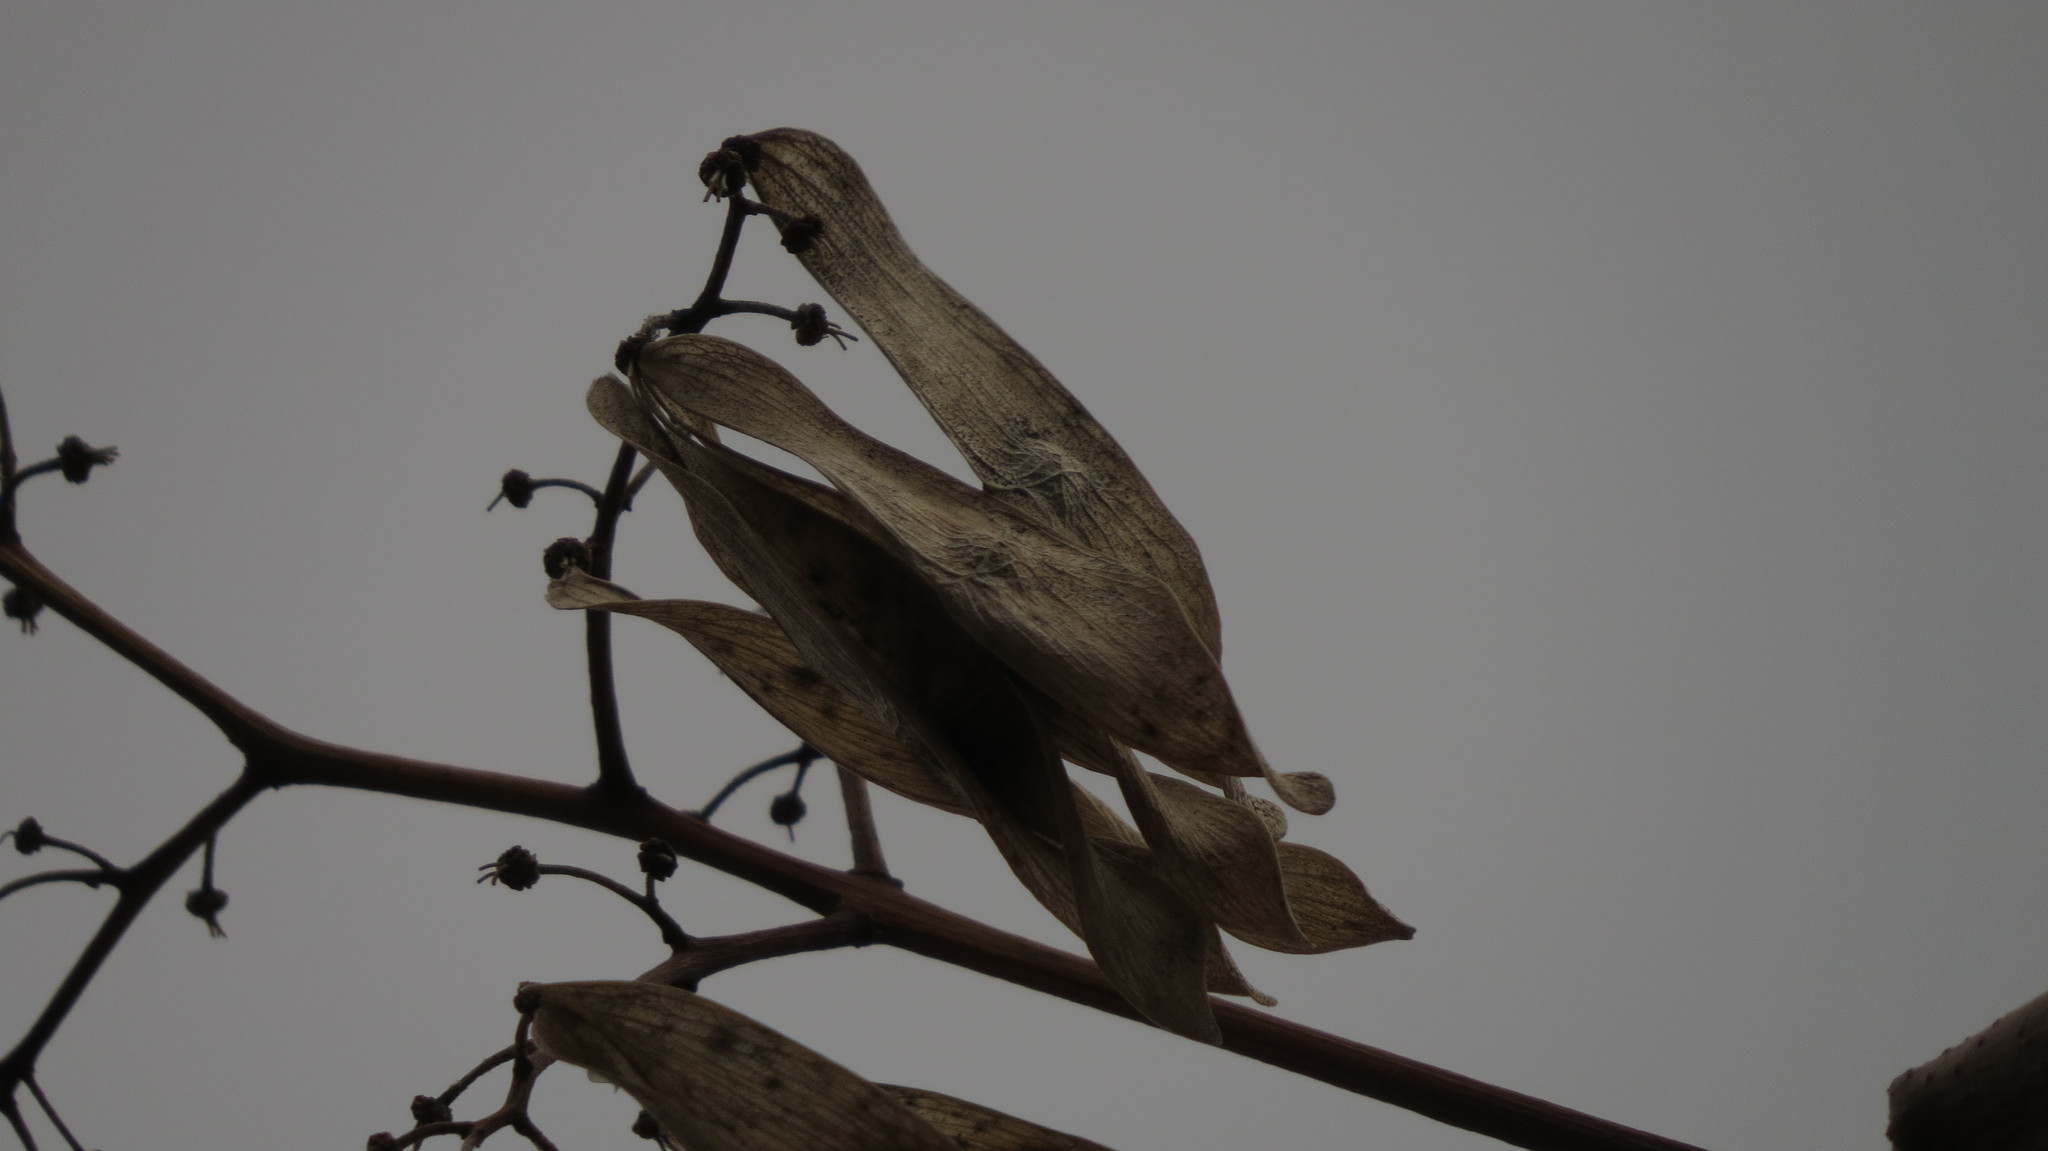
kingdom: Plantae
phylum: Tracheophyta
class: Magnoliopsida
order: Sapindales
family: Simaroubaceae
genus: Ailanthus
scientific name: Ailanthus altissima
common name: Tree-of-heaven
